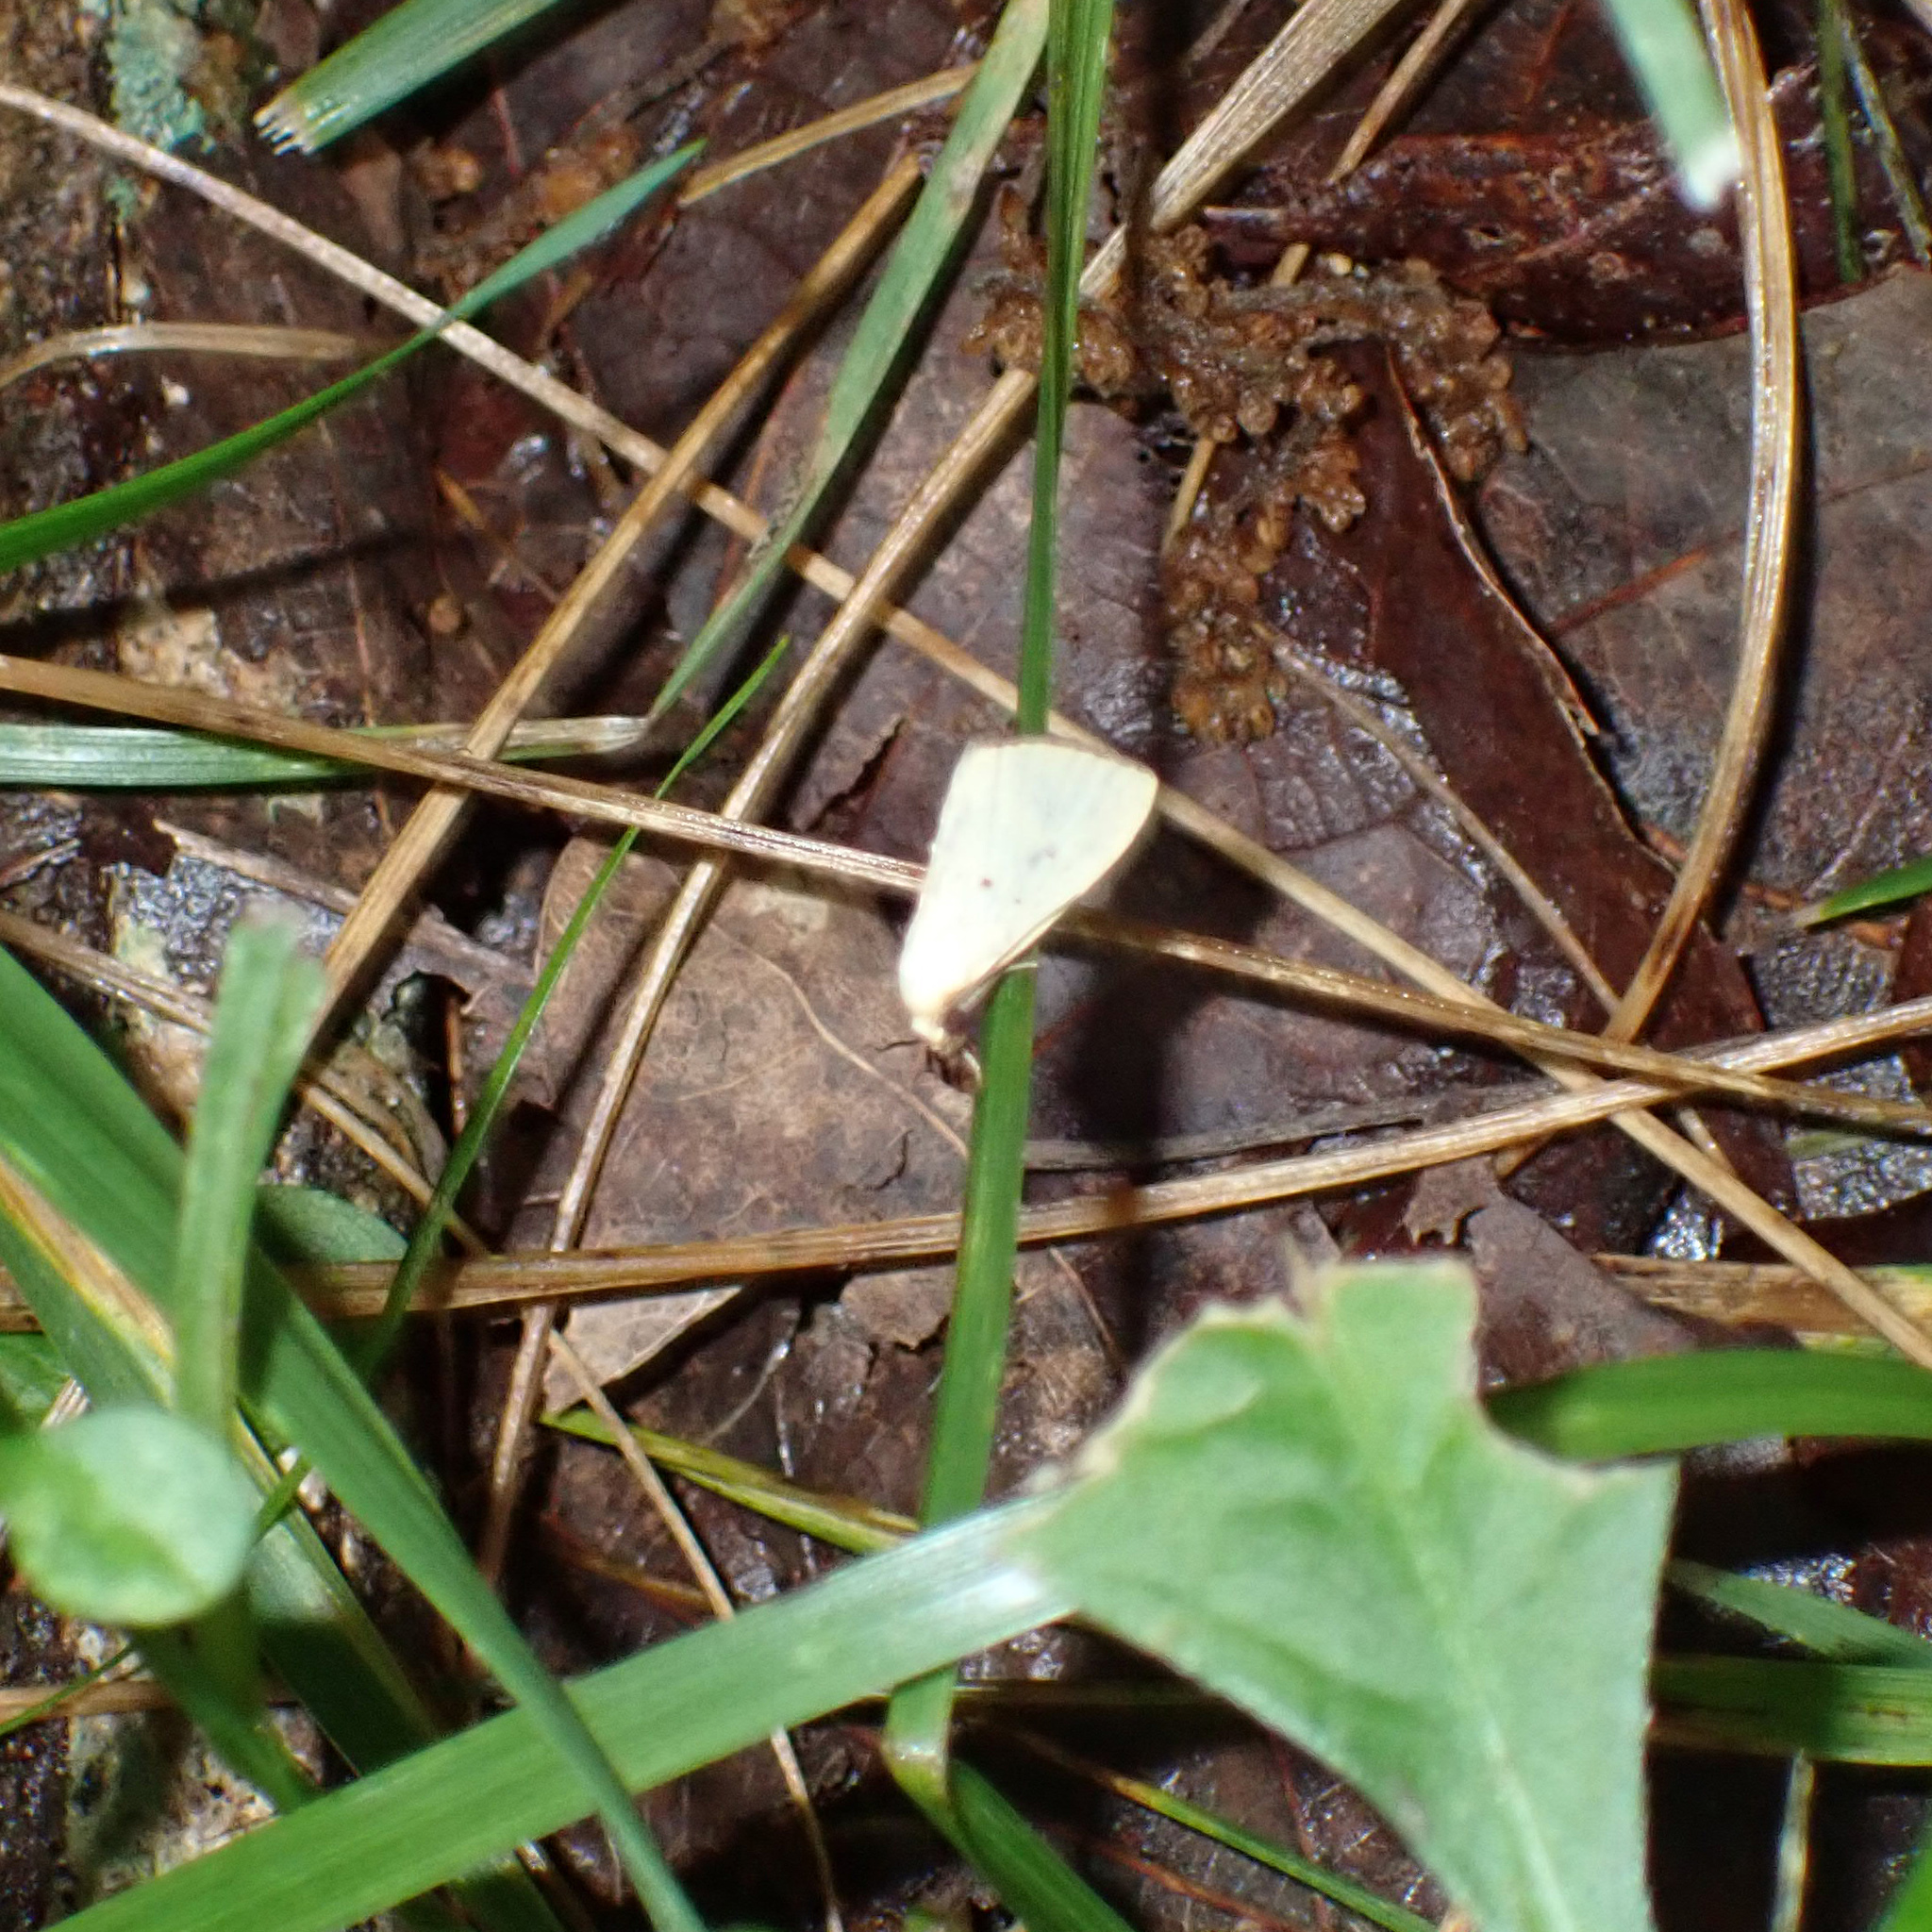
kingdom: Animalia
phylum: Arthropoda
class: Insecta
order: Lepidoptera
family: Noctuidae
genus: Marimatha
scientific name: Marimatha nigrofimbria
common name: Black-bordered lemon moth
